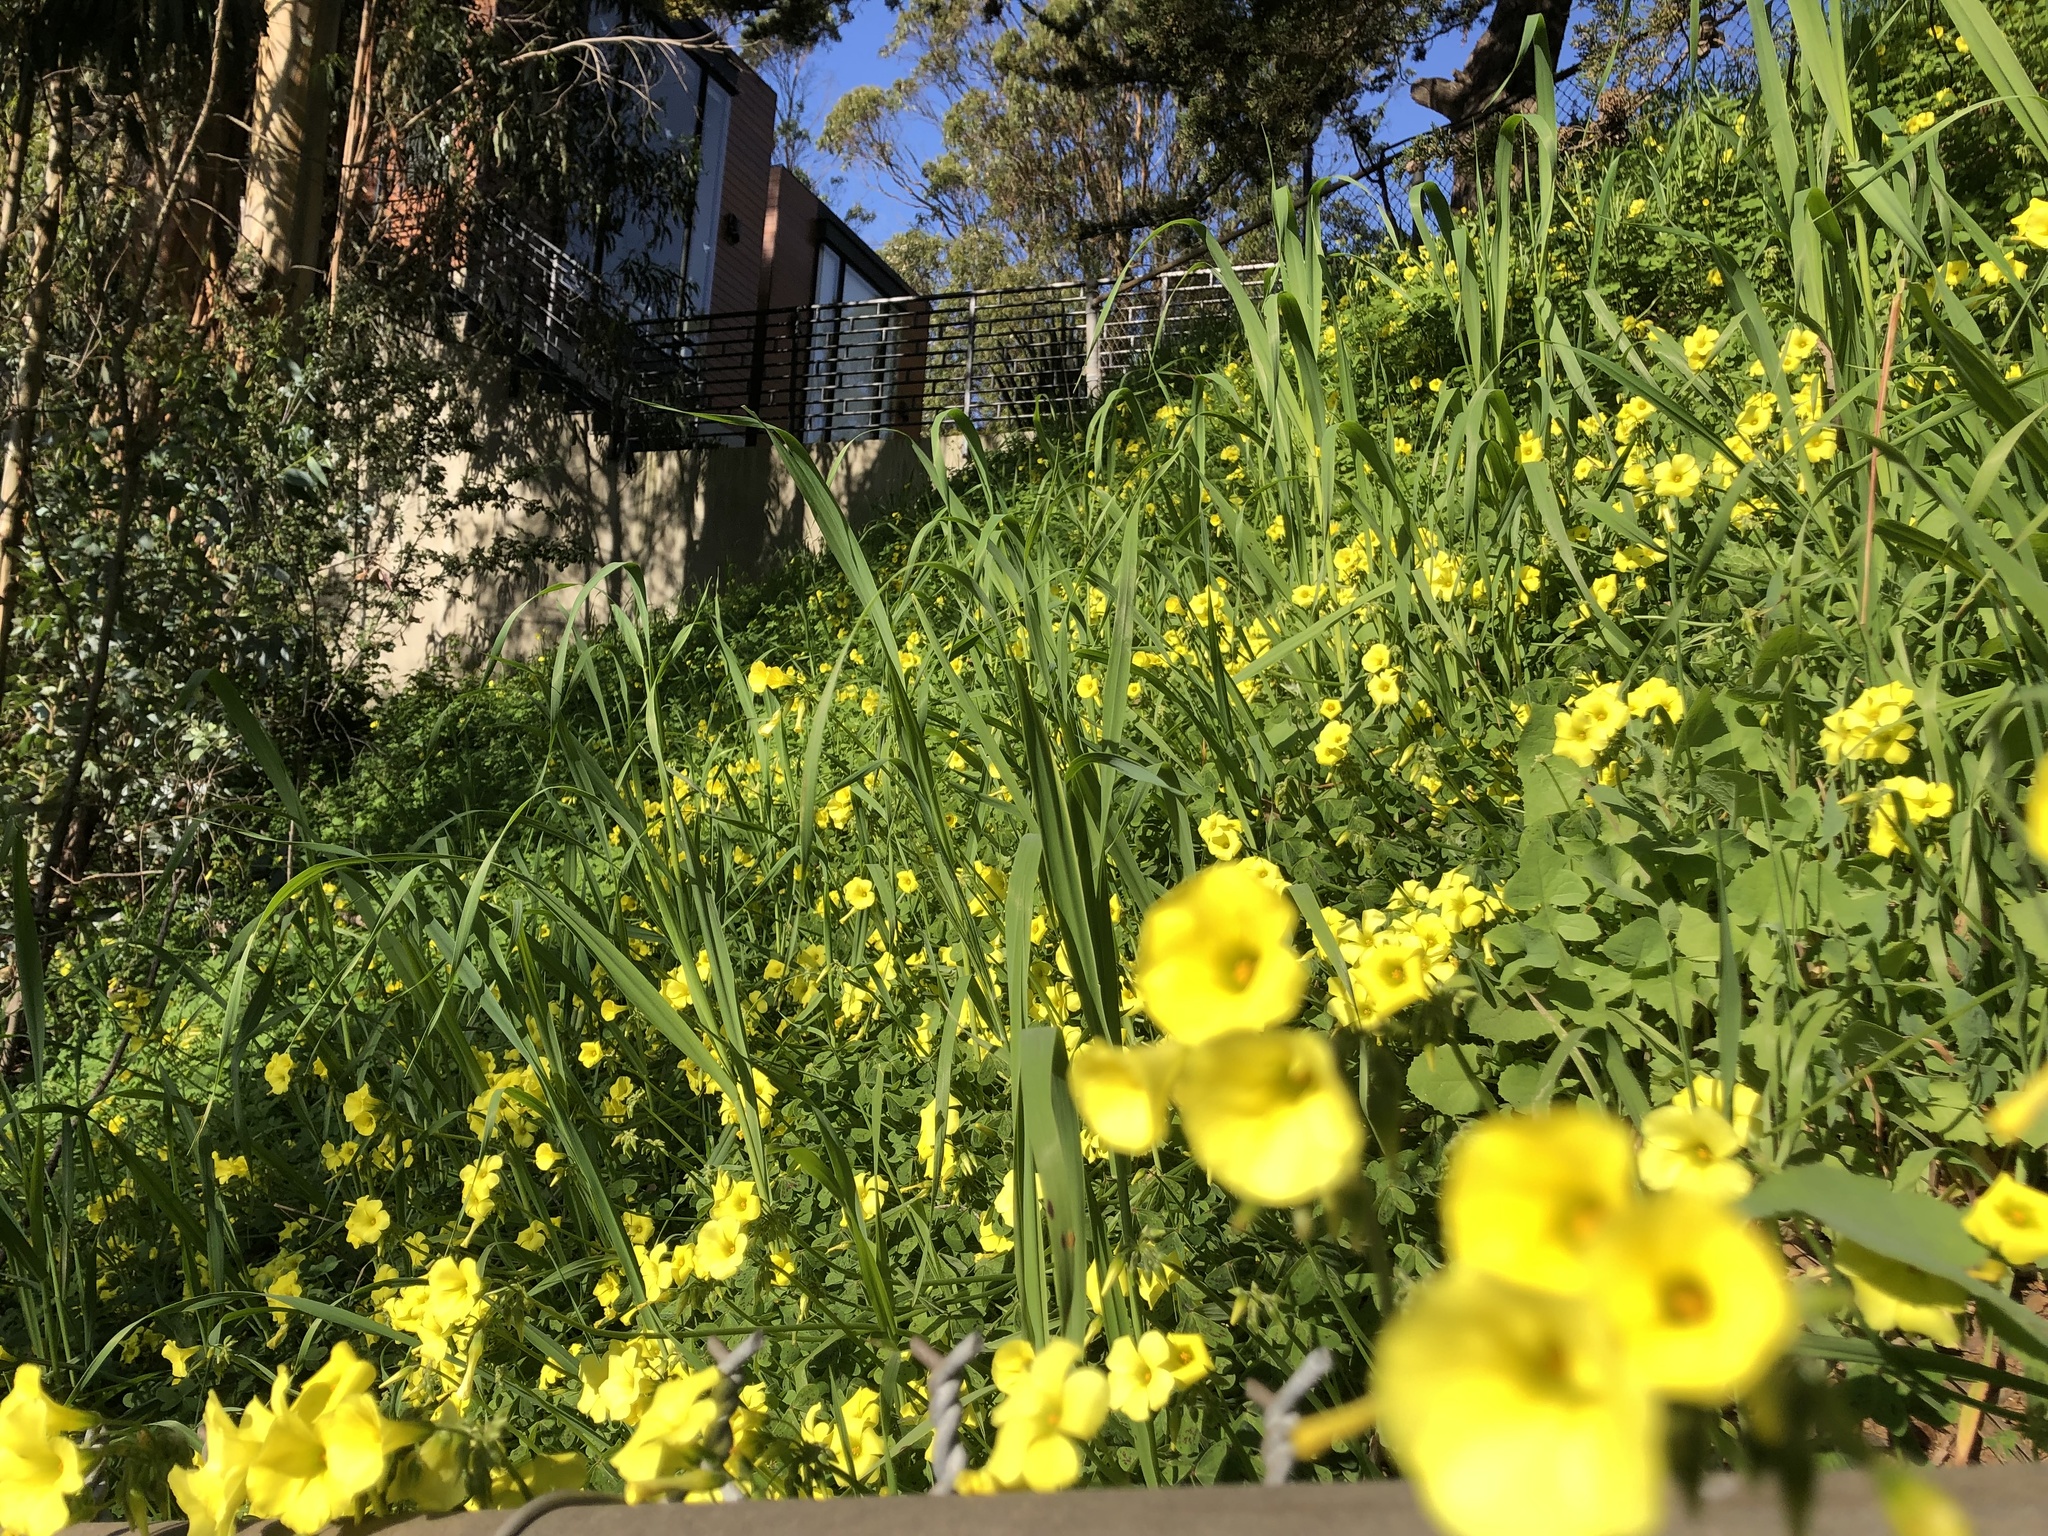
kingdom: Plantae
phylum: Tracheophyta
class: Magnoliopsida
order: Oxalidales
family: Oxalidaceae
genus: Oxalis
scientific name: Oxalis pes-caprae
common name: Bermuda-buttercup
